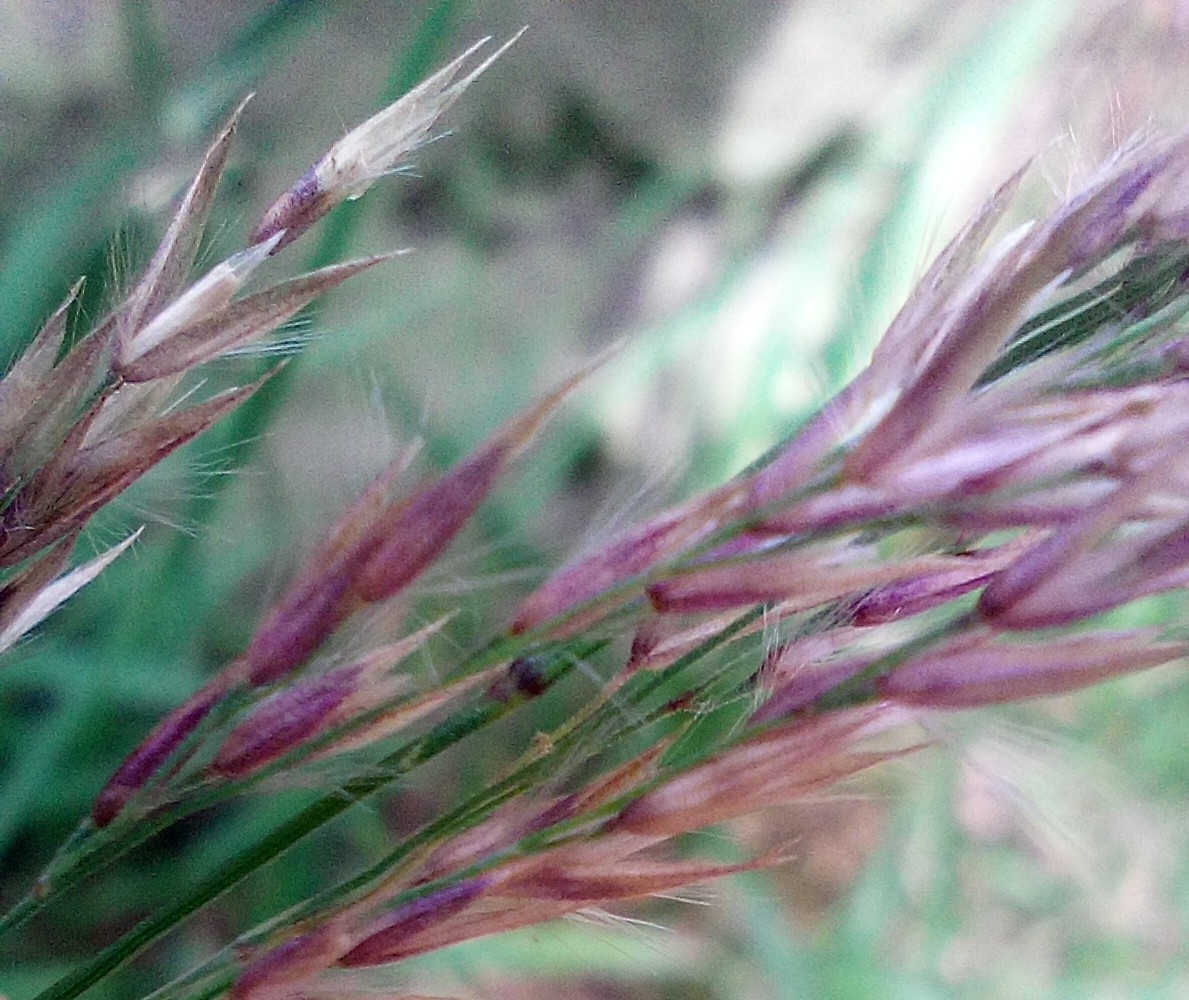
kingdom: Plantae
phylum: Tracheophyta
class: Liliopsida
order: Poales
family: Poaceae
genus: Calamagrostis
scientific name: Calamagrostis villosa
